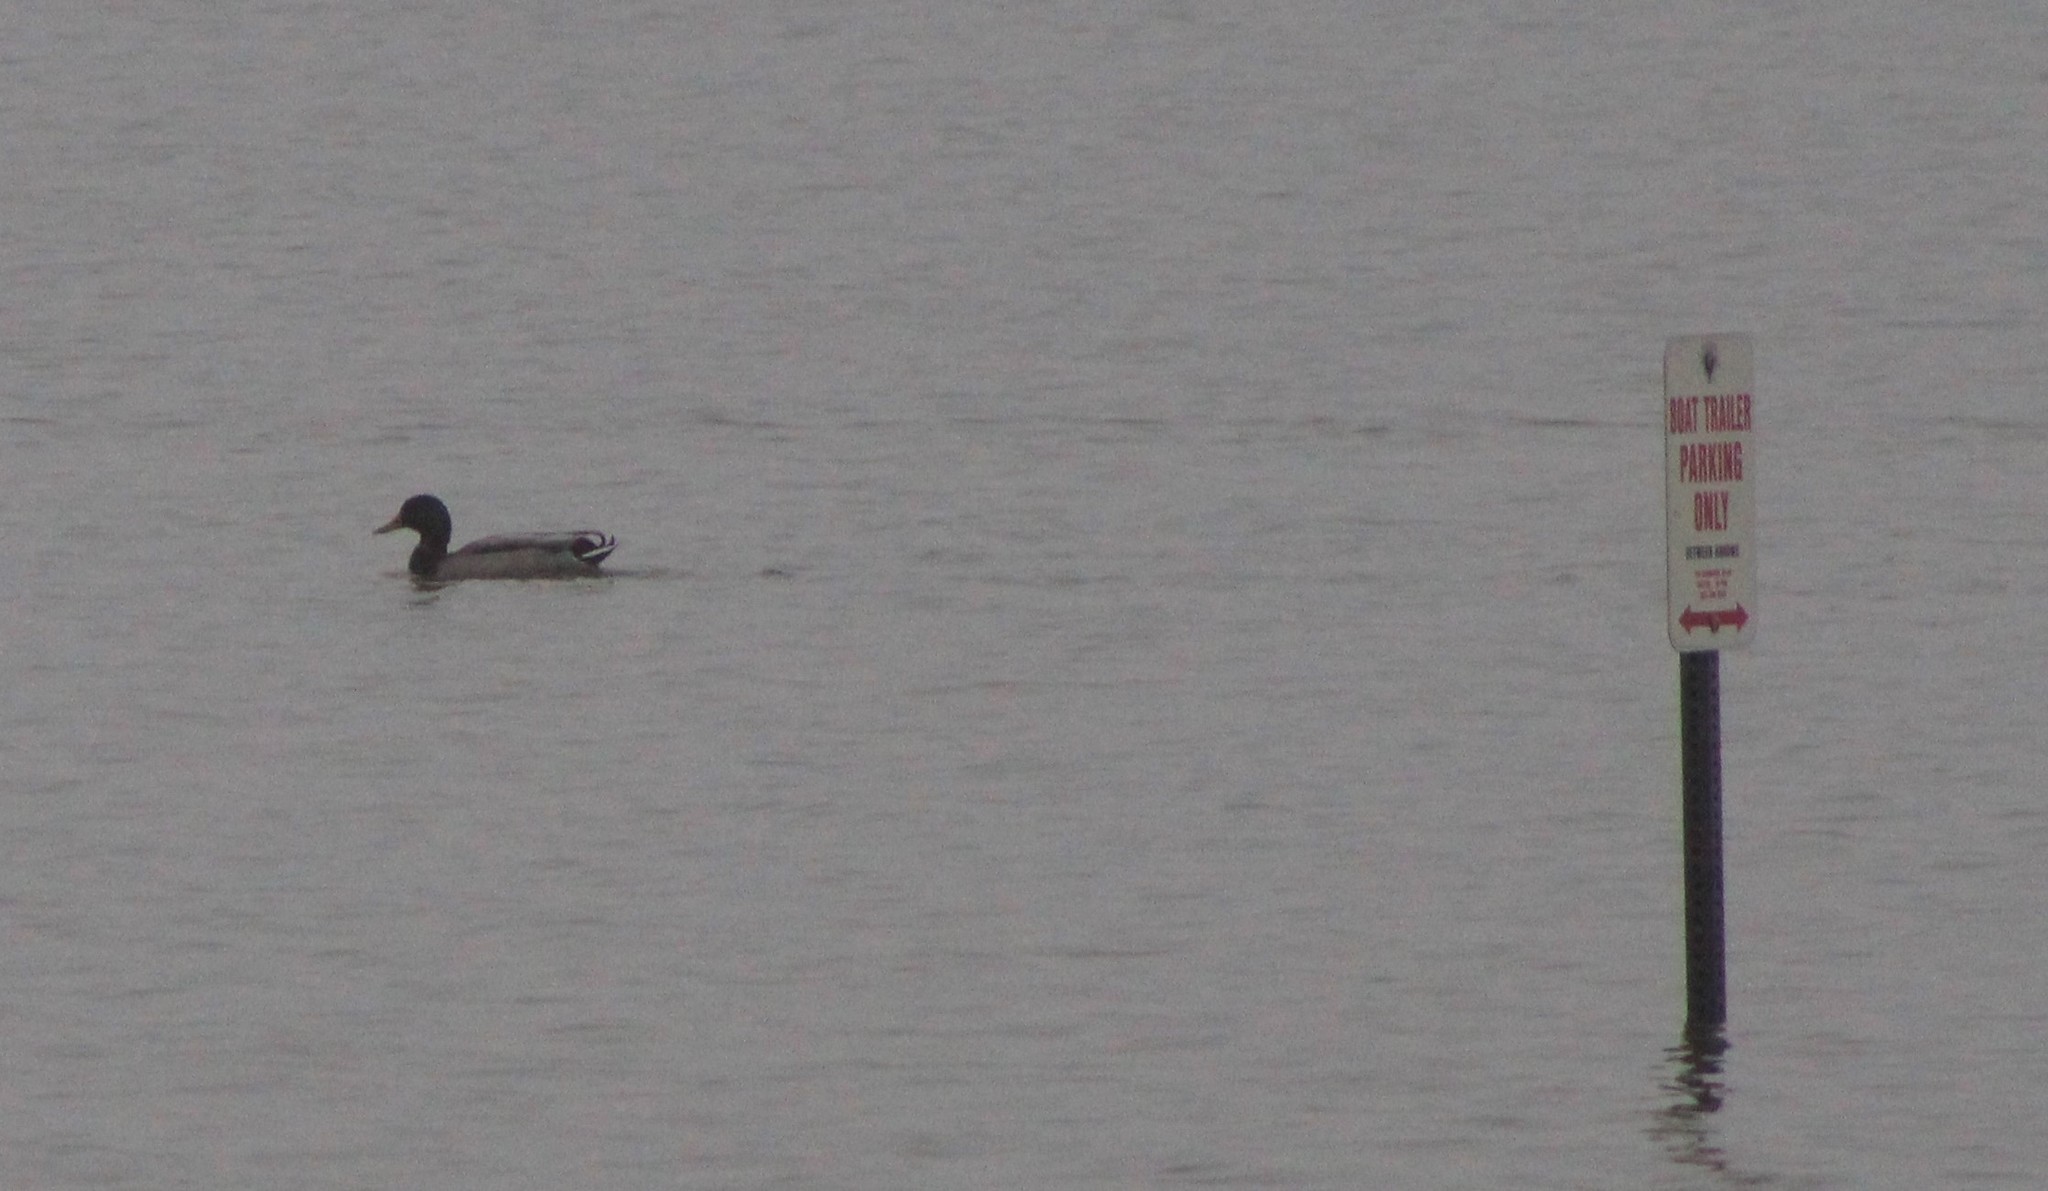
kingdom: Animalia
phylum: Chordata
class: Aves
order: Anseriformes
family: Anatidae
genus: Anas
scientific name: Anas platyrhynchos
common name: Mallard
